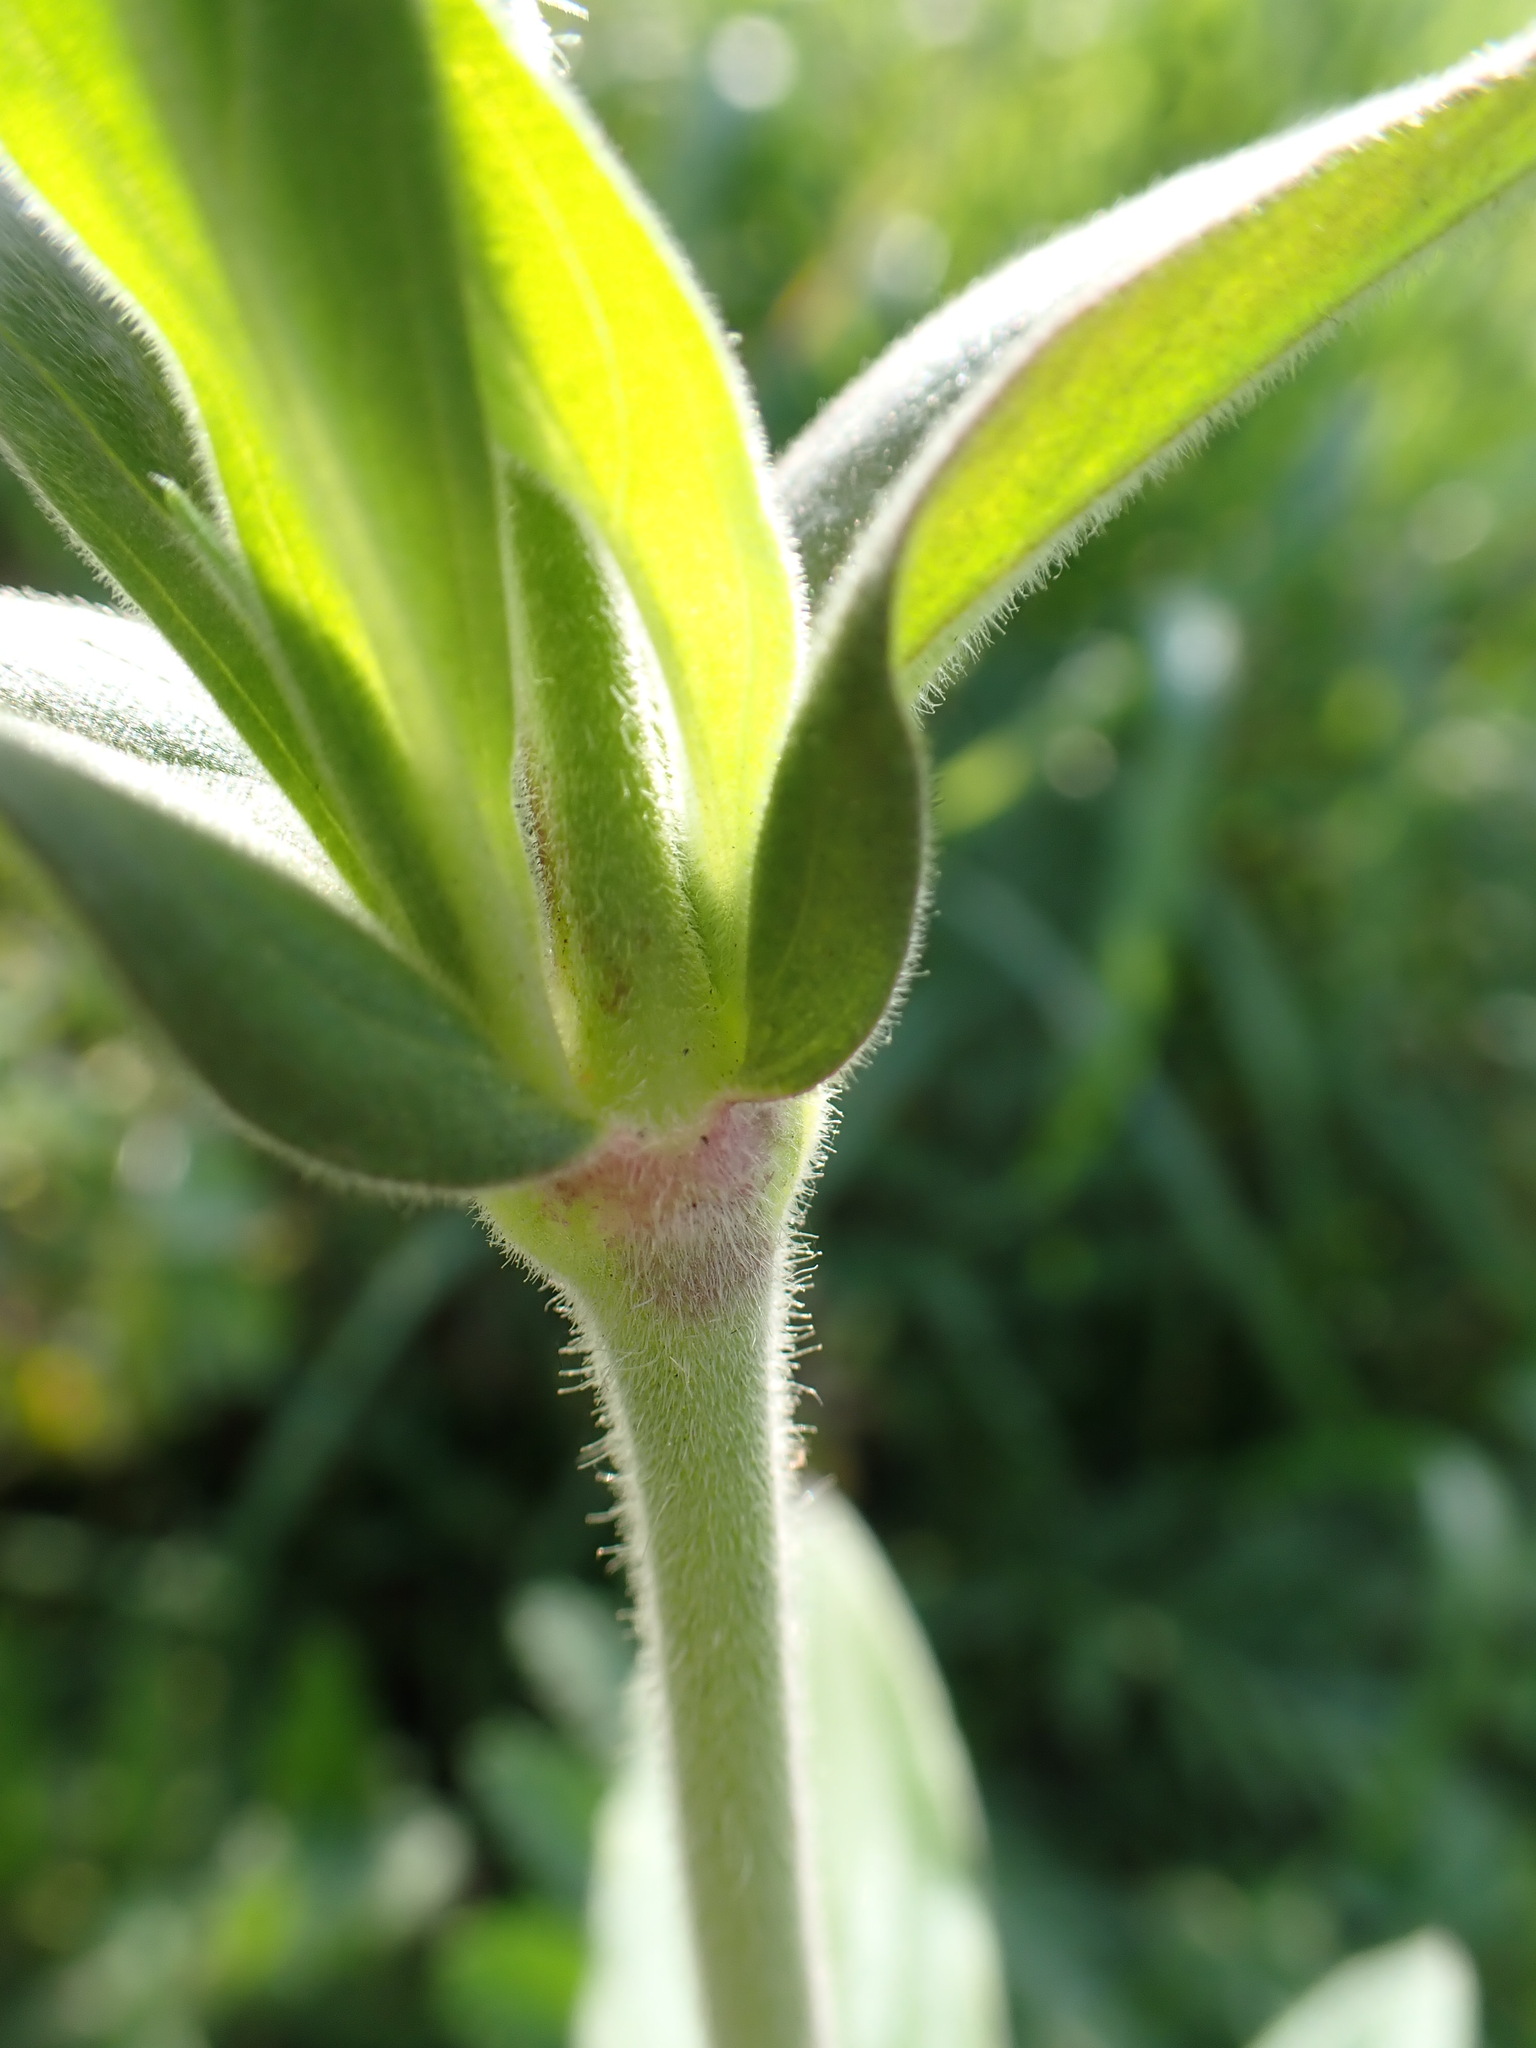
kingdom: Plantae
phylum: Tracheophyta
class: Magnoliopsida
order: Caryophyllales
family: Caryophyllaceae
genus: Silene
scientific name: Silene latifolia
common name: White campion
